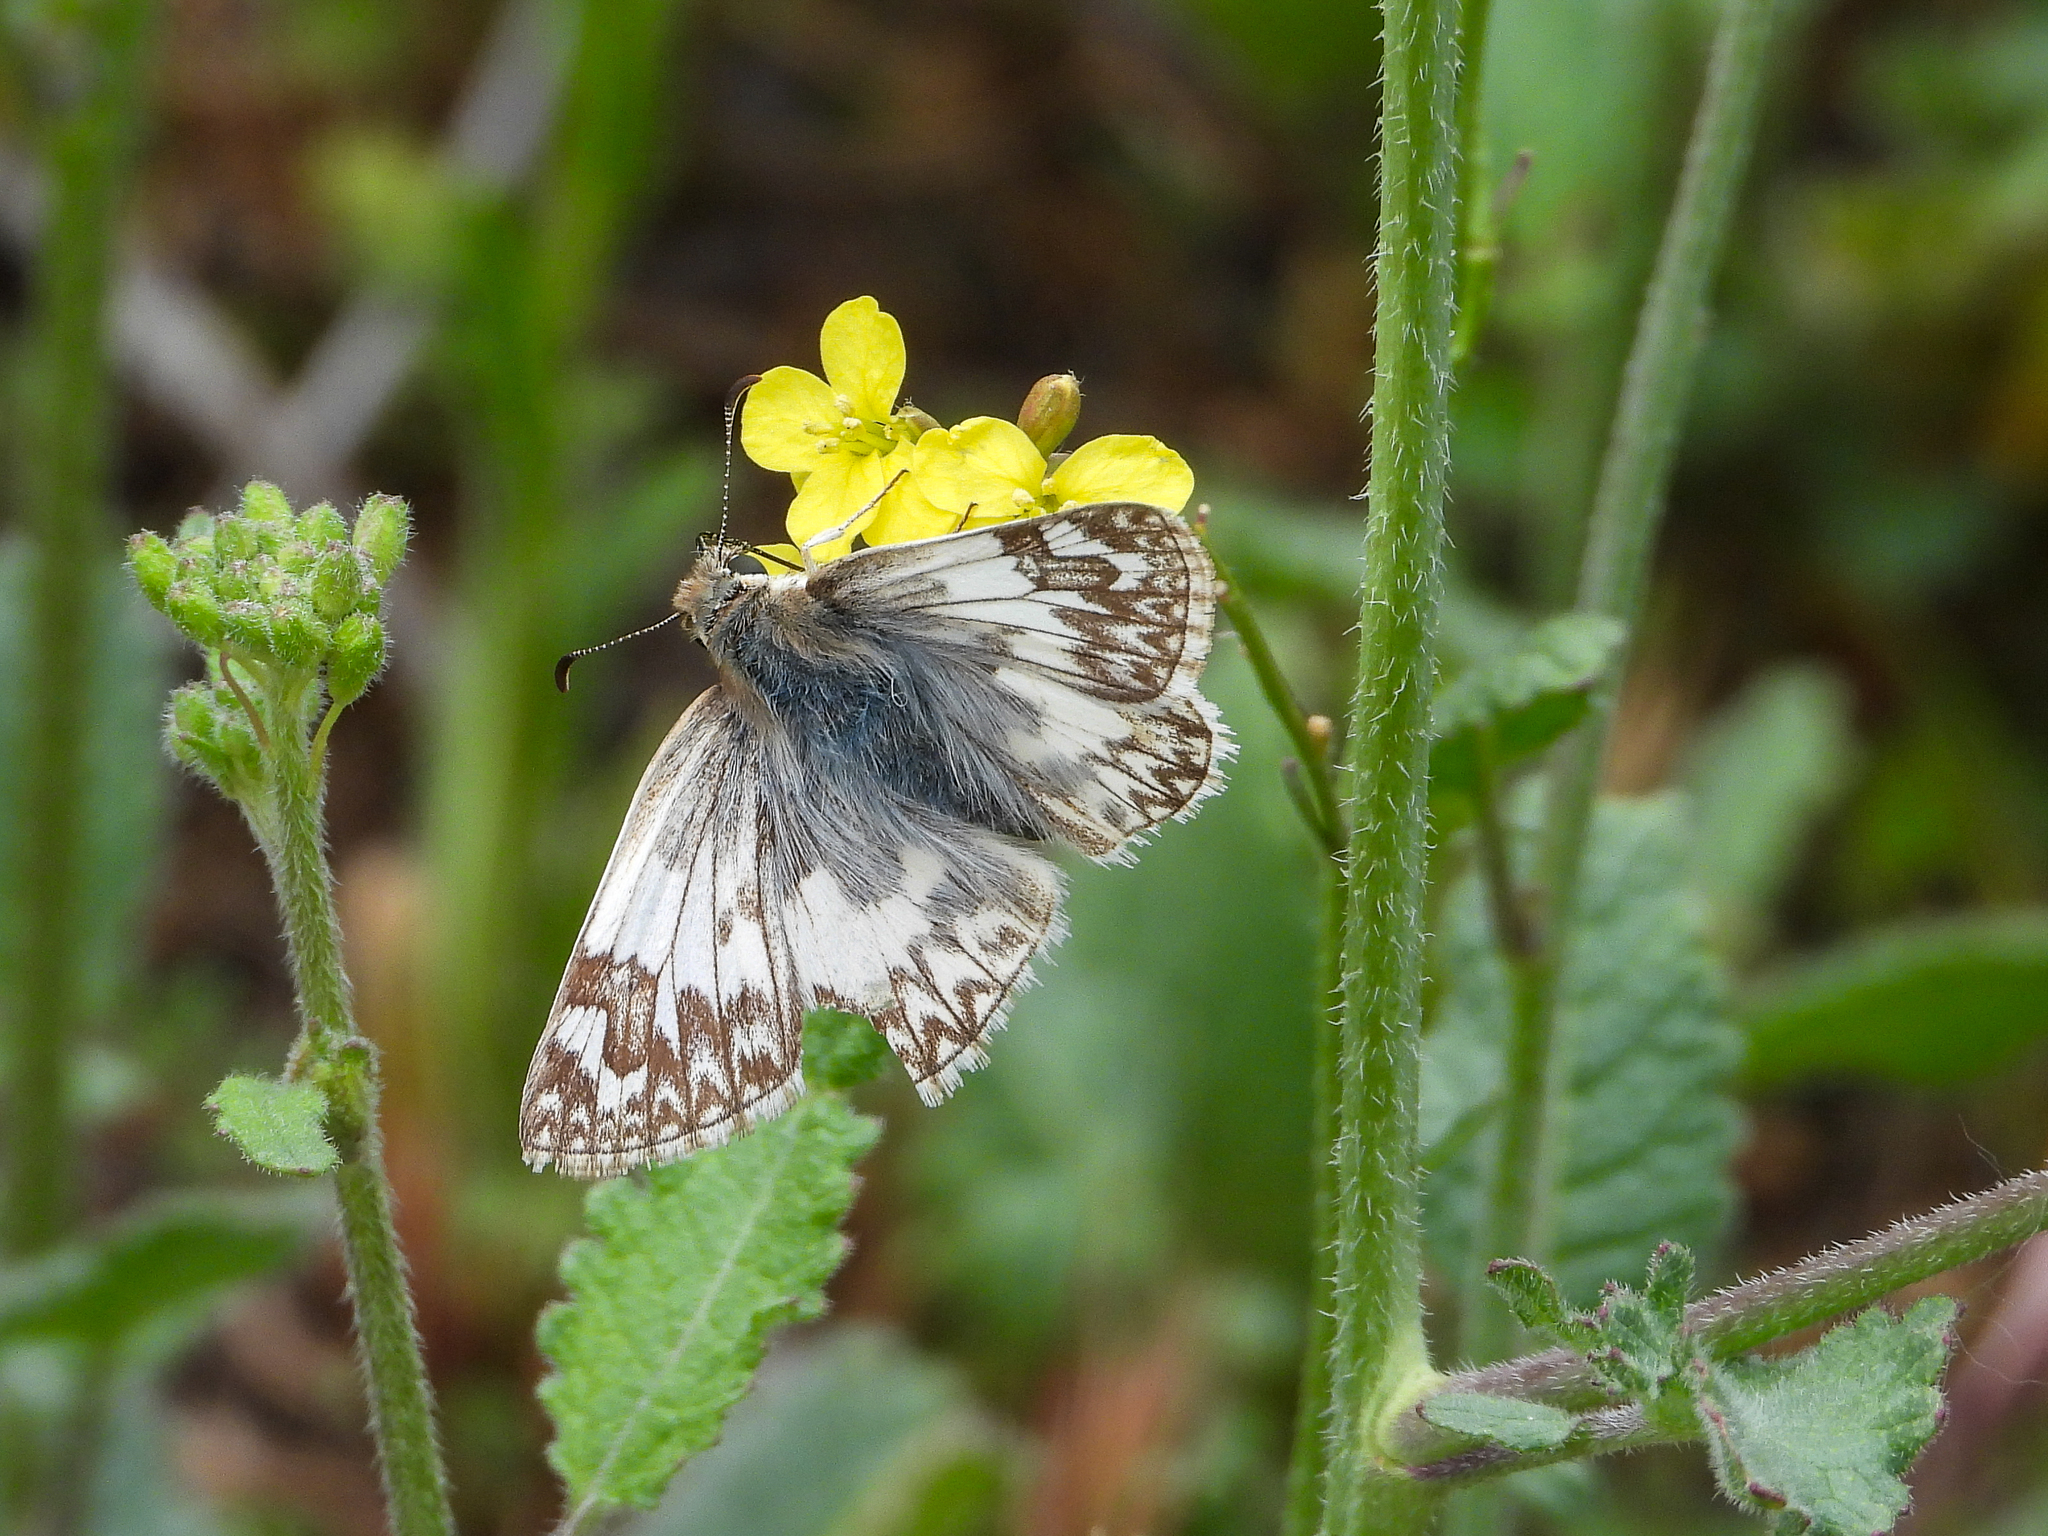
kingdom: Animalia
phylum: Arthropoda
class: Insecta
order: Lepidoptera
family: Hesperiidae
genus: Heliopetes
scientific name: Heliopetes ericetorum
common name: Northern white-skipper
